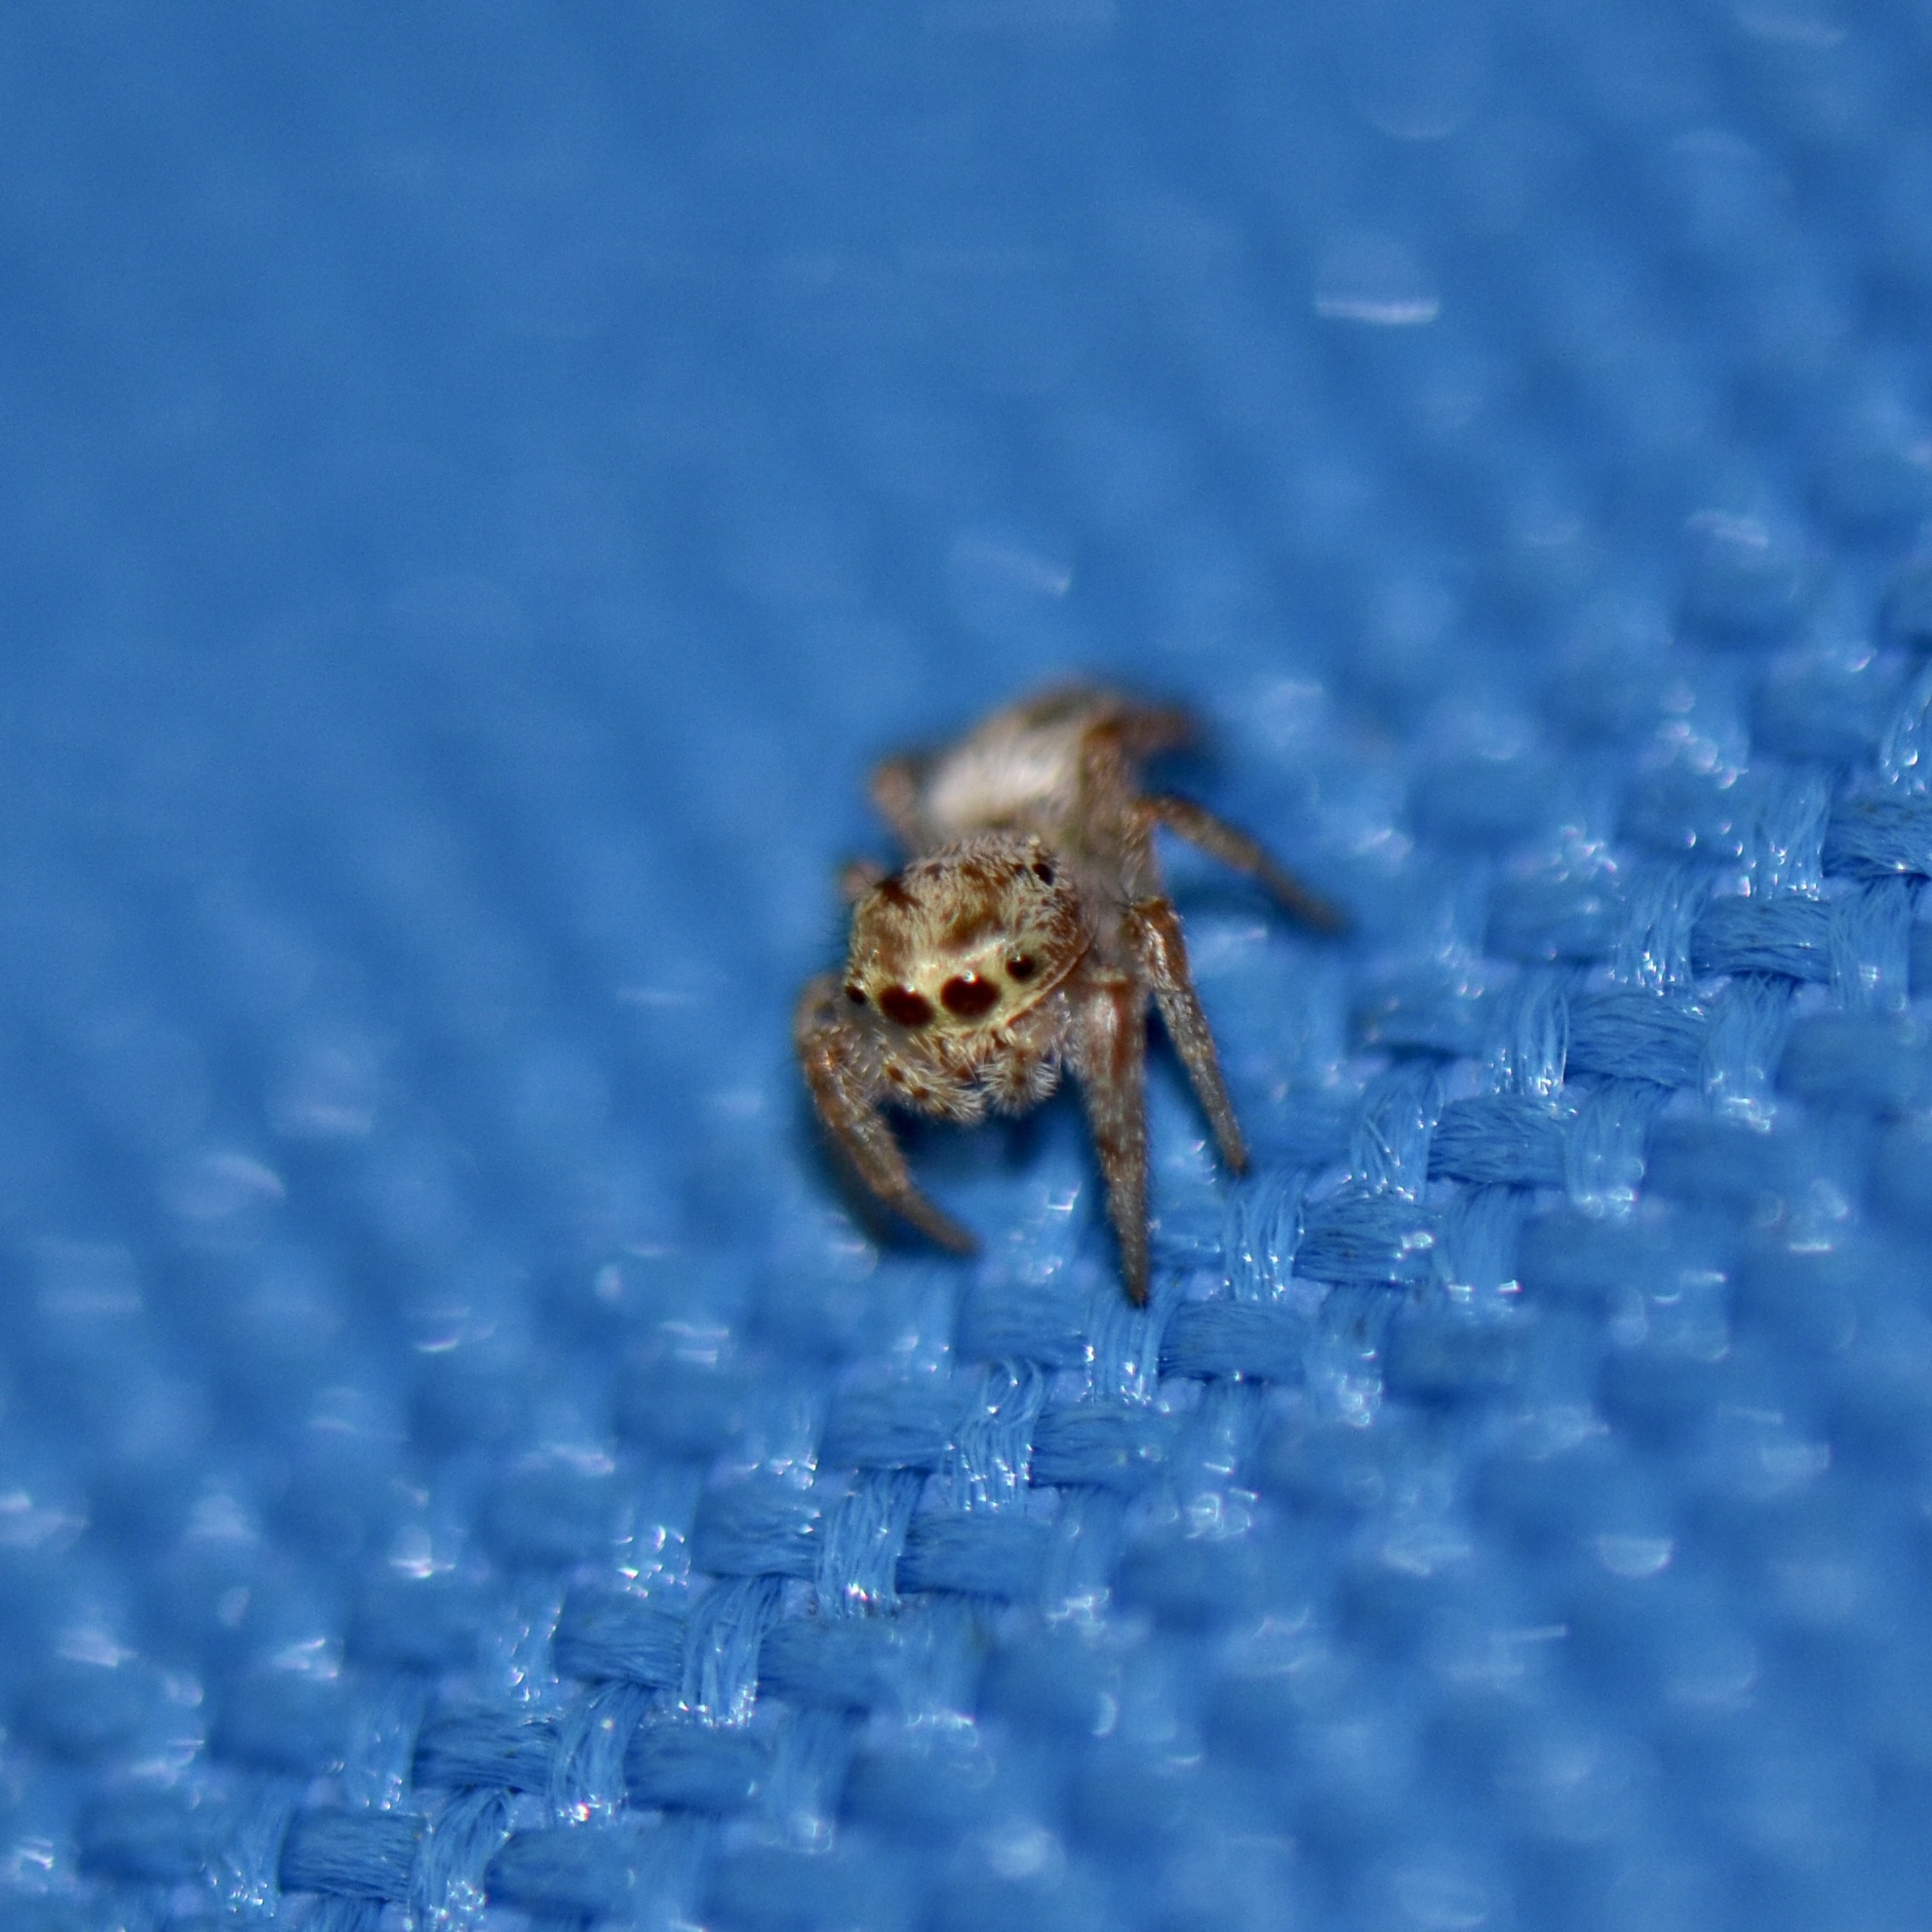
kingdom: Animalia
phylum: Arthropoda
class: Arachnida
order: Araneae
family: Salticidae
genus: Eris
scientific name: Eris floridana
